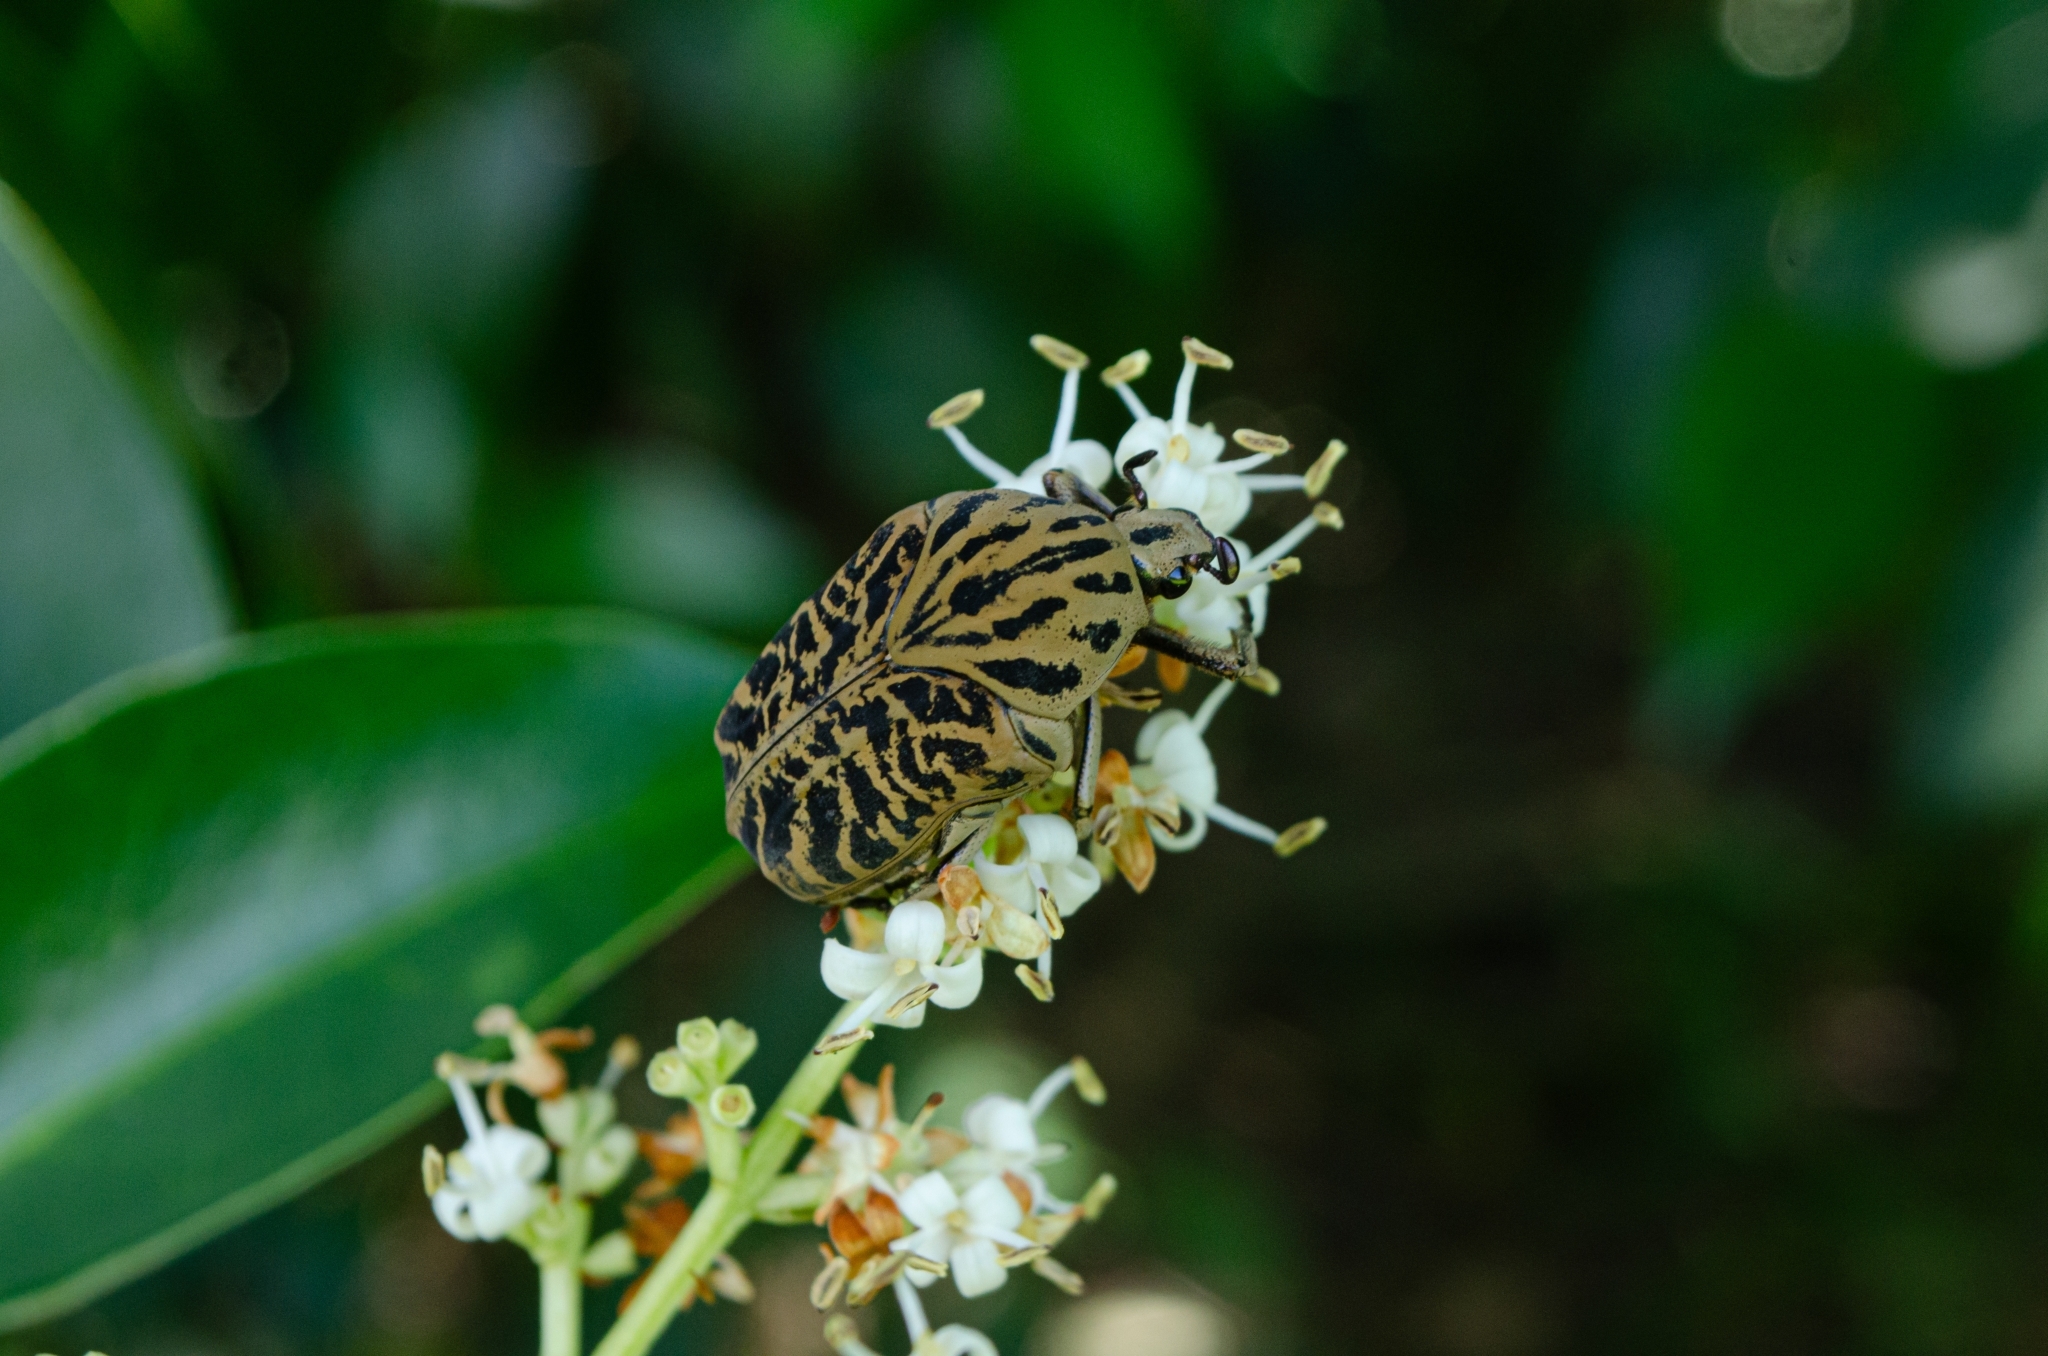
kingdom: Animalia
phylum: Arthropoda
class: Insecta
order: Coleoptera
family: Scarabaeidae
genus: Gymnetis
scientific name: Gymnetis strigosa
